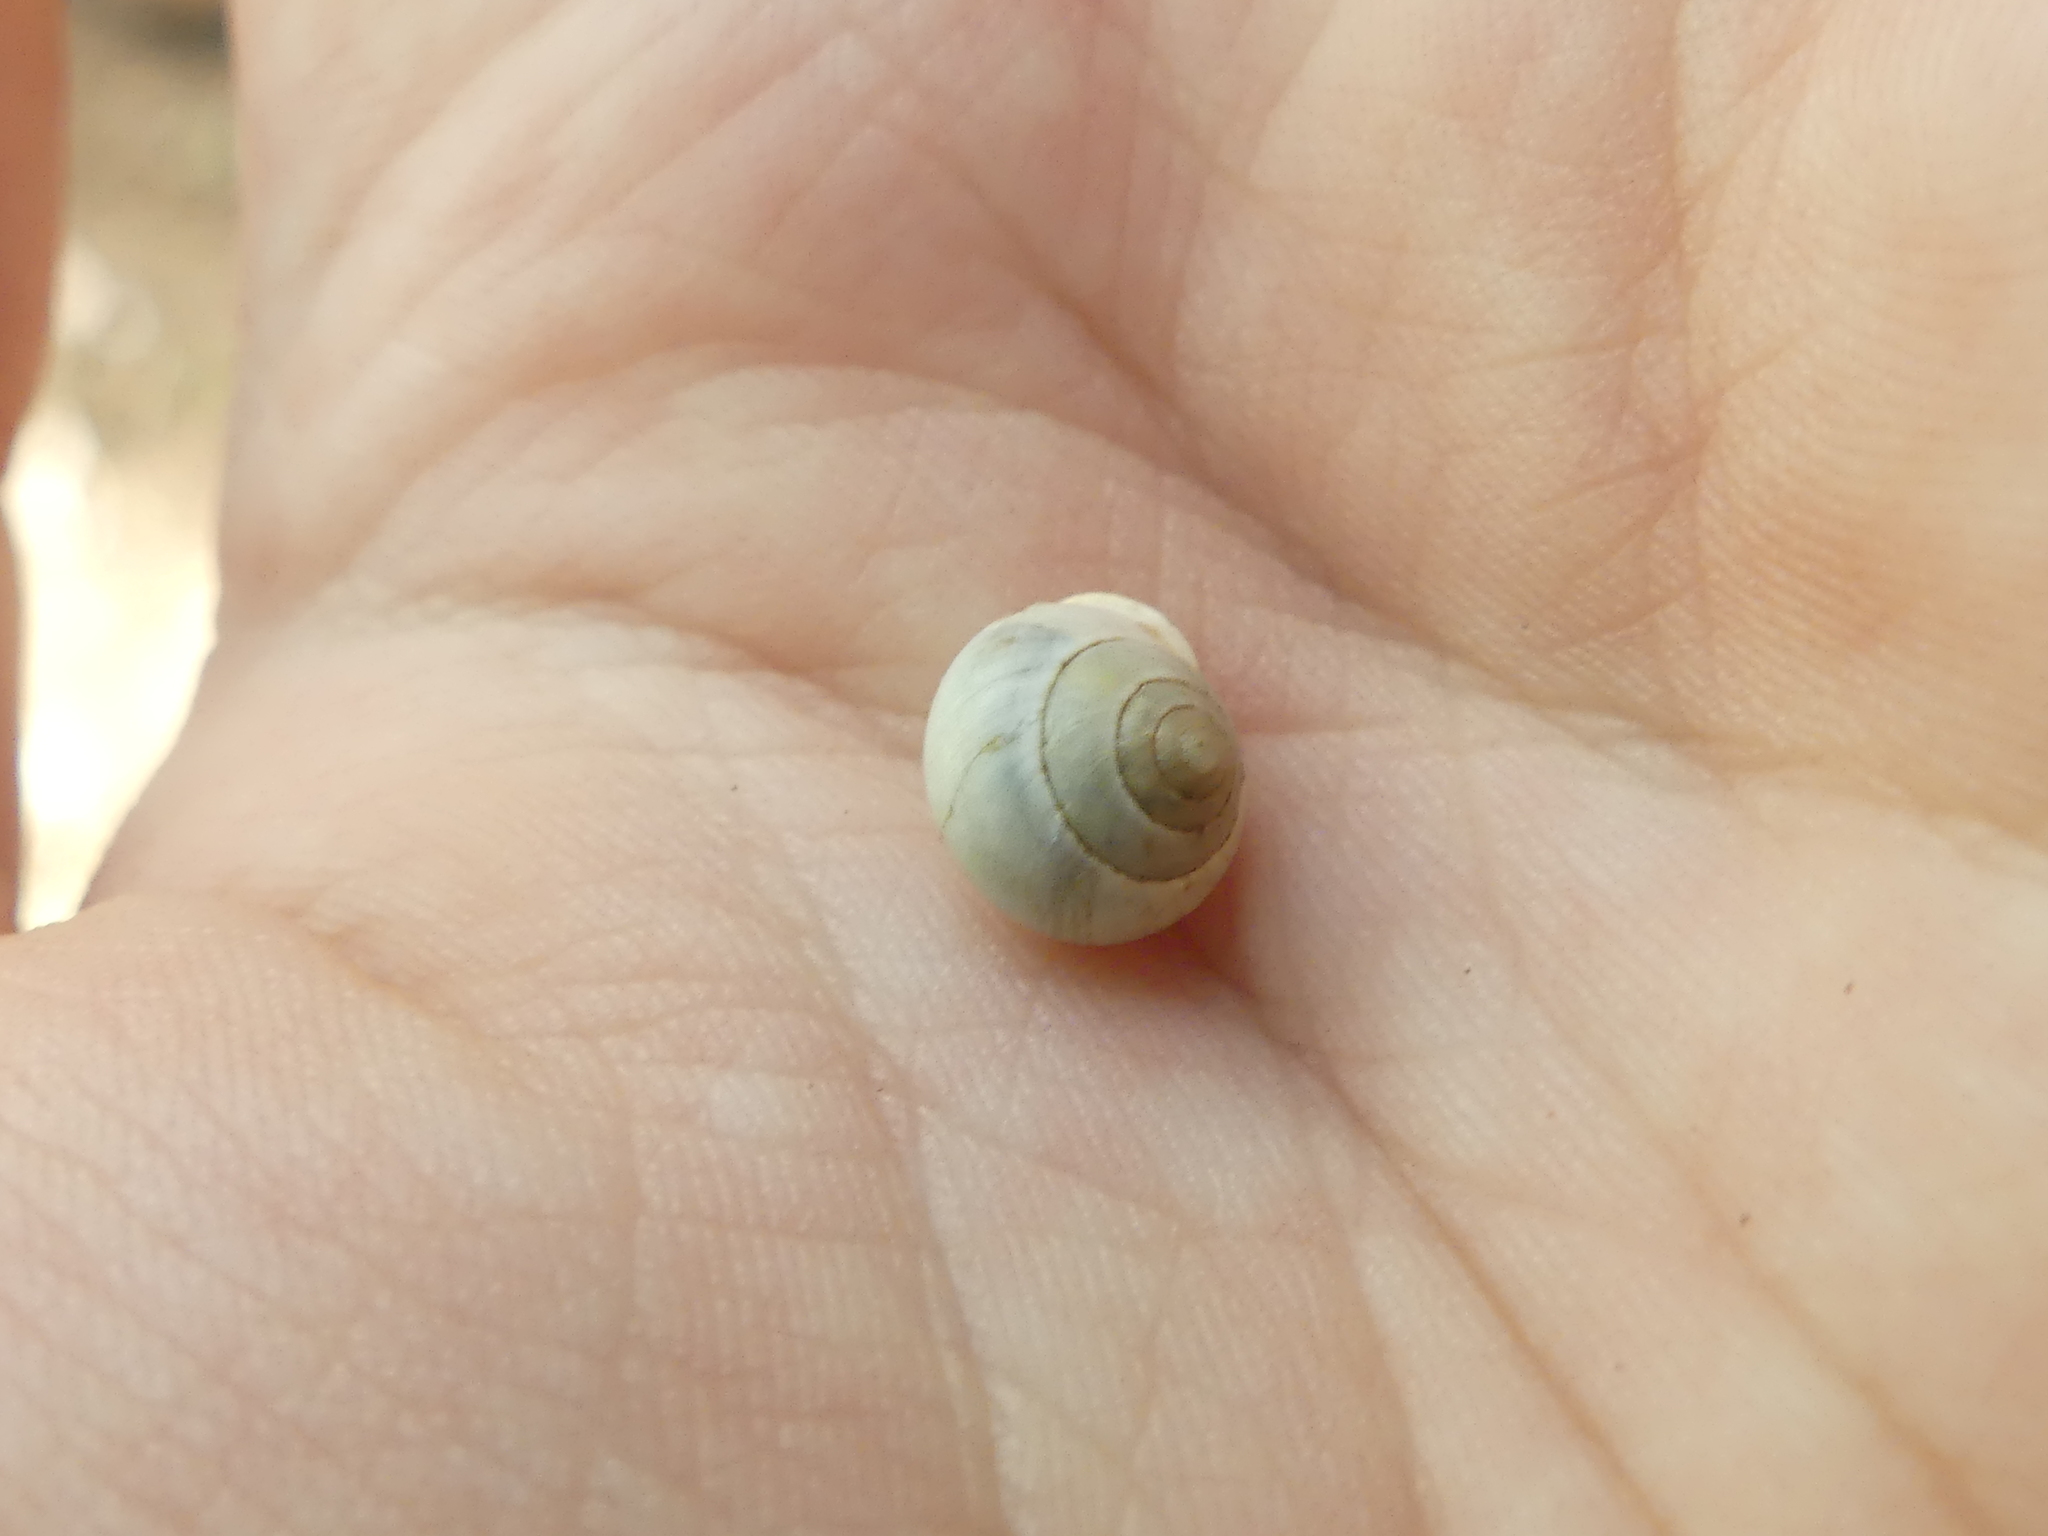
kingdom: Animalia
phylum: Mollusca
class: Gastropoda
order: Cycloneritida
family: Helicinidae
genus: Helicina
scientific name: Helicina orbiculata
